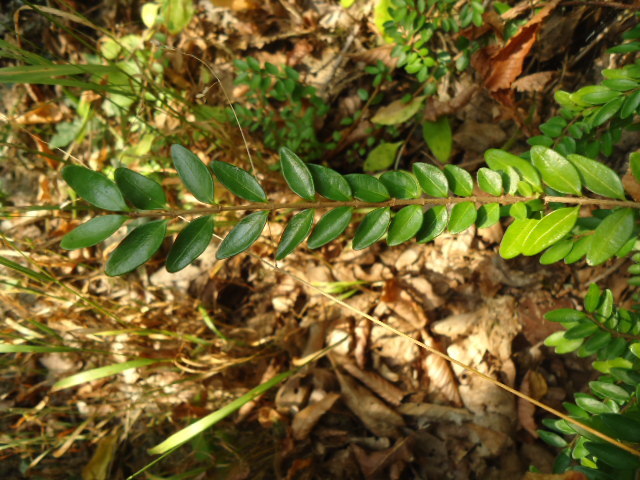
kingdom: Plantae
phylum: Tracheophyta
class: Magnoliopsida
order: Dipsacales
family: Caprifoliaceae
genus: Lonicera
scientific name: Lonicera pileata
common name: Box-leaved honeysuckle
